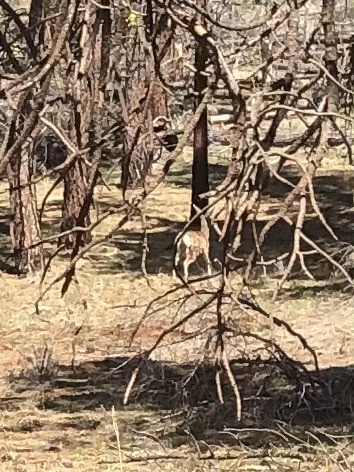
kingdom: Animalia
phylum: Chordata
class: Mammalia
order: Artiodactyla
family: Cervidae
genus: Odocoileus
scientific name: Odocoileus hemionus
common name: Mule deer
